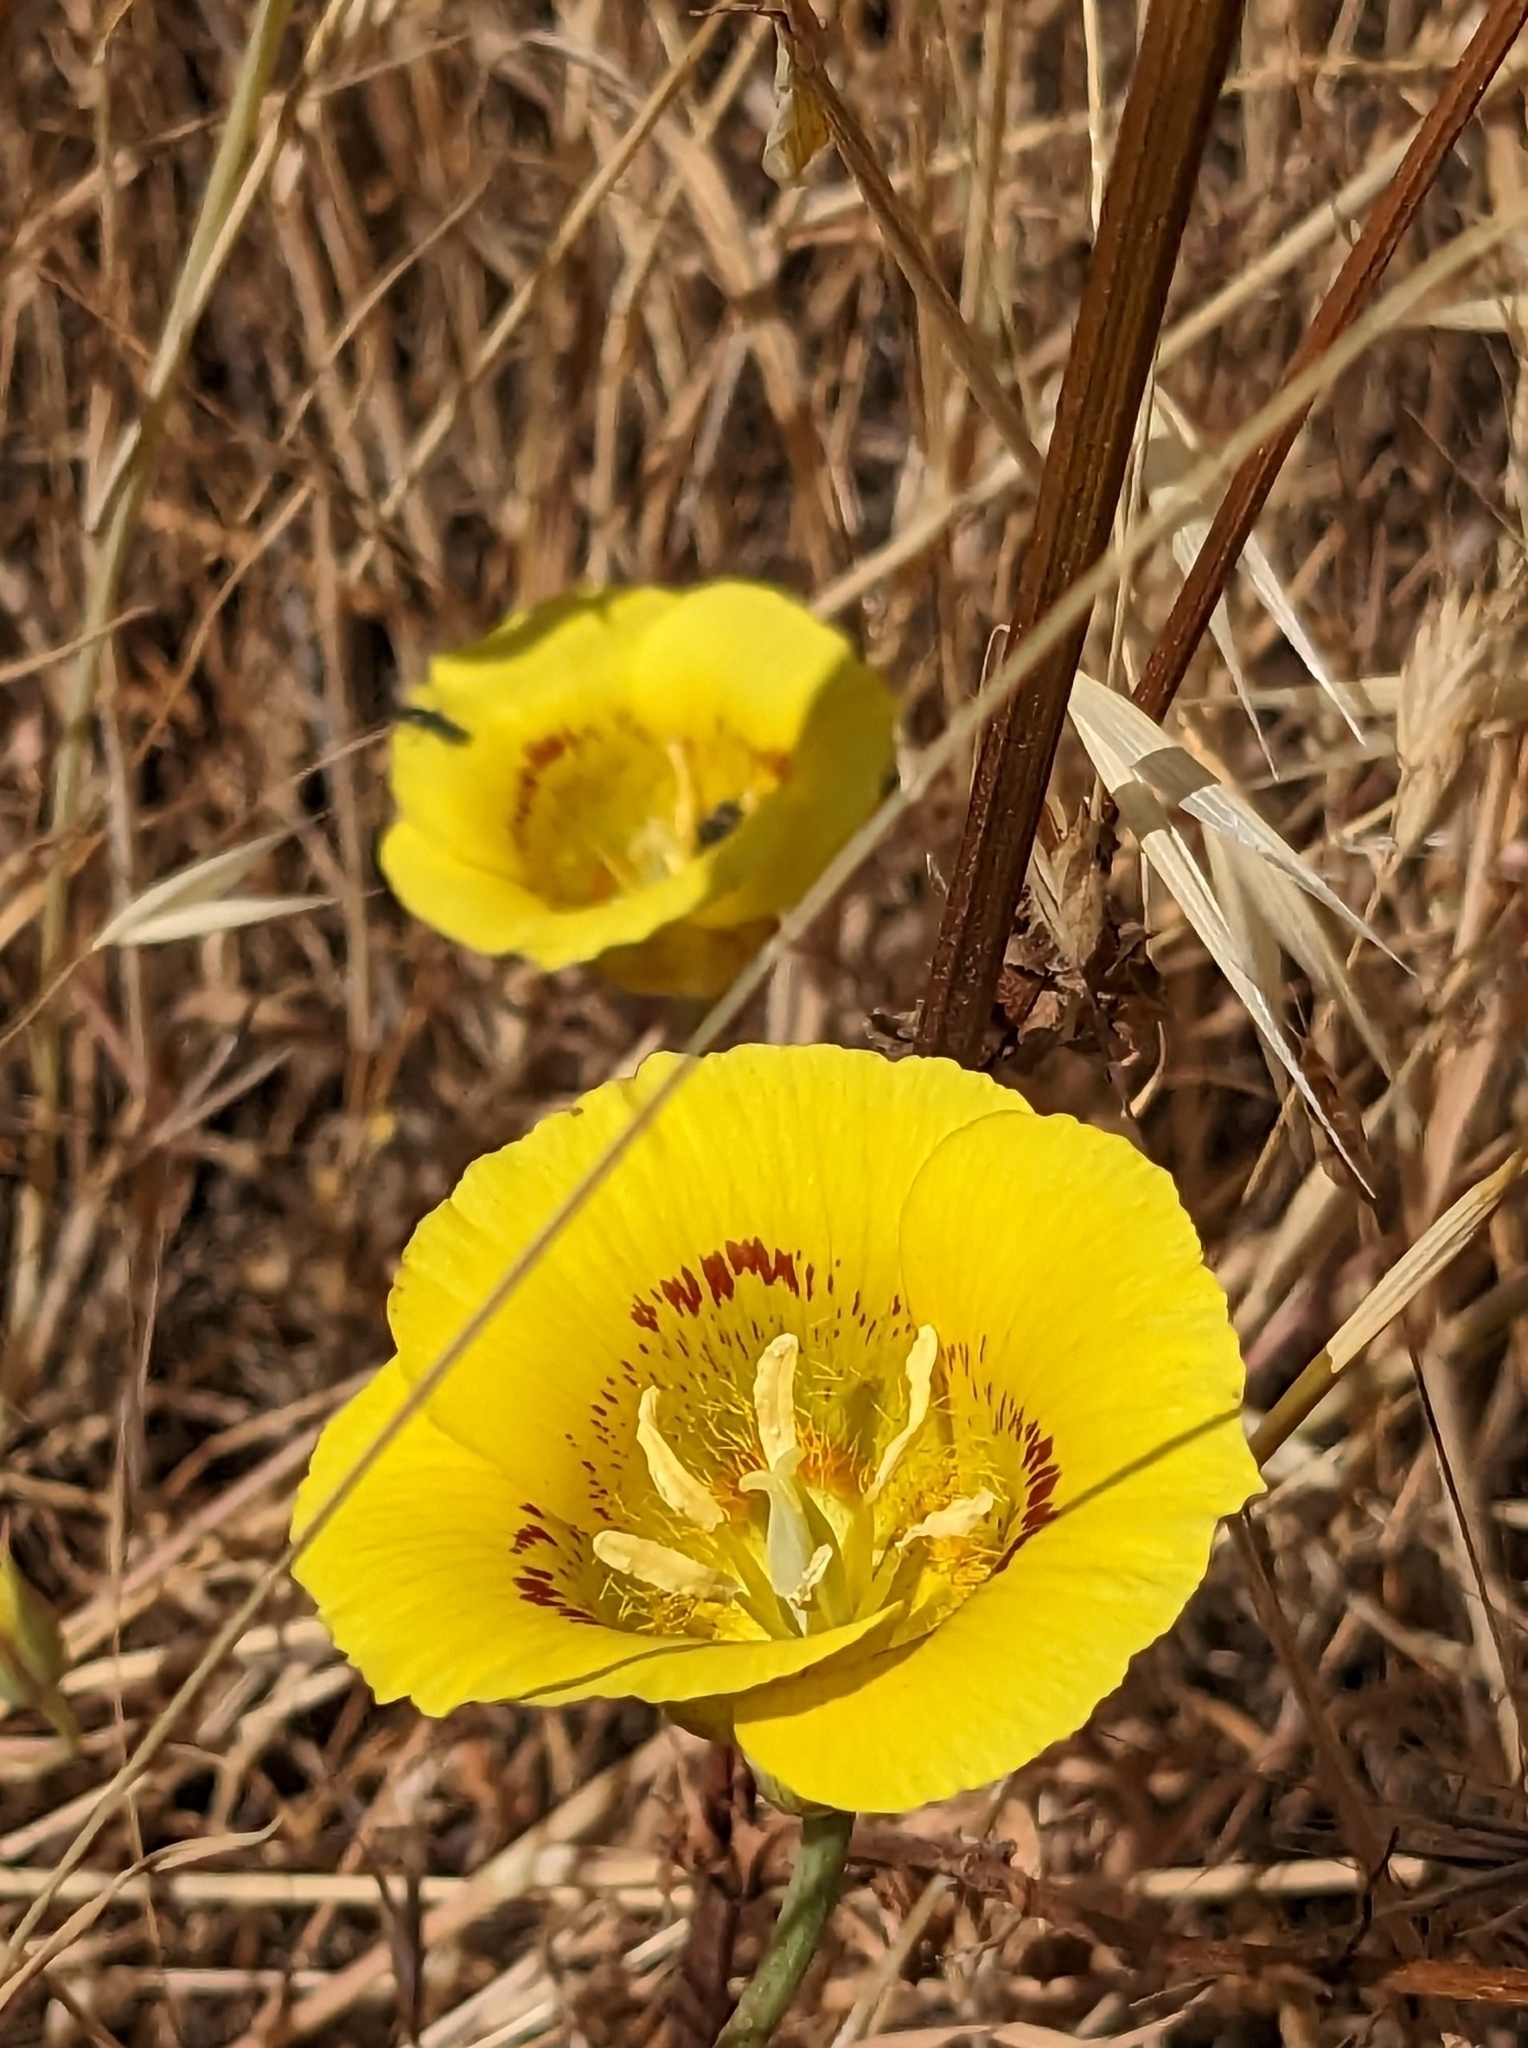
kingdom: Plantae
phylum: Tracheophyta
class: Liliopsida
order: Liliales
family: Liliaceae
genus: Calochortus
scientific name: Calochortus luteus
